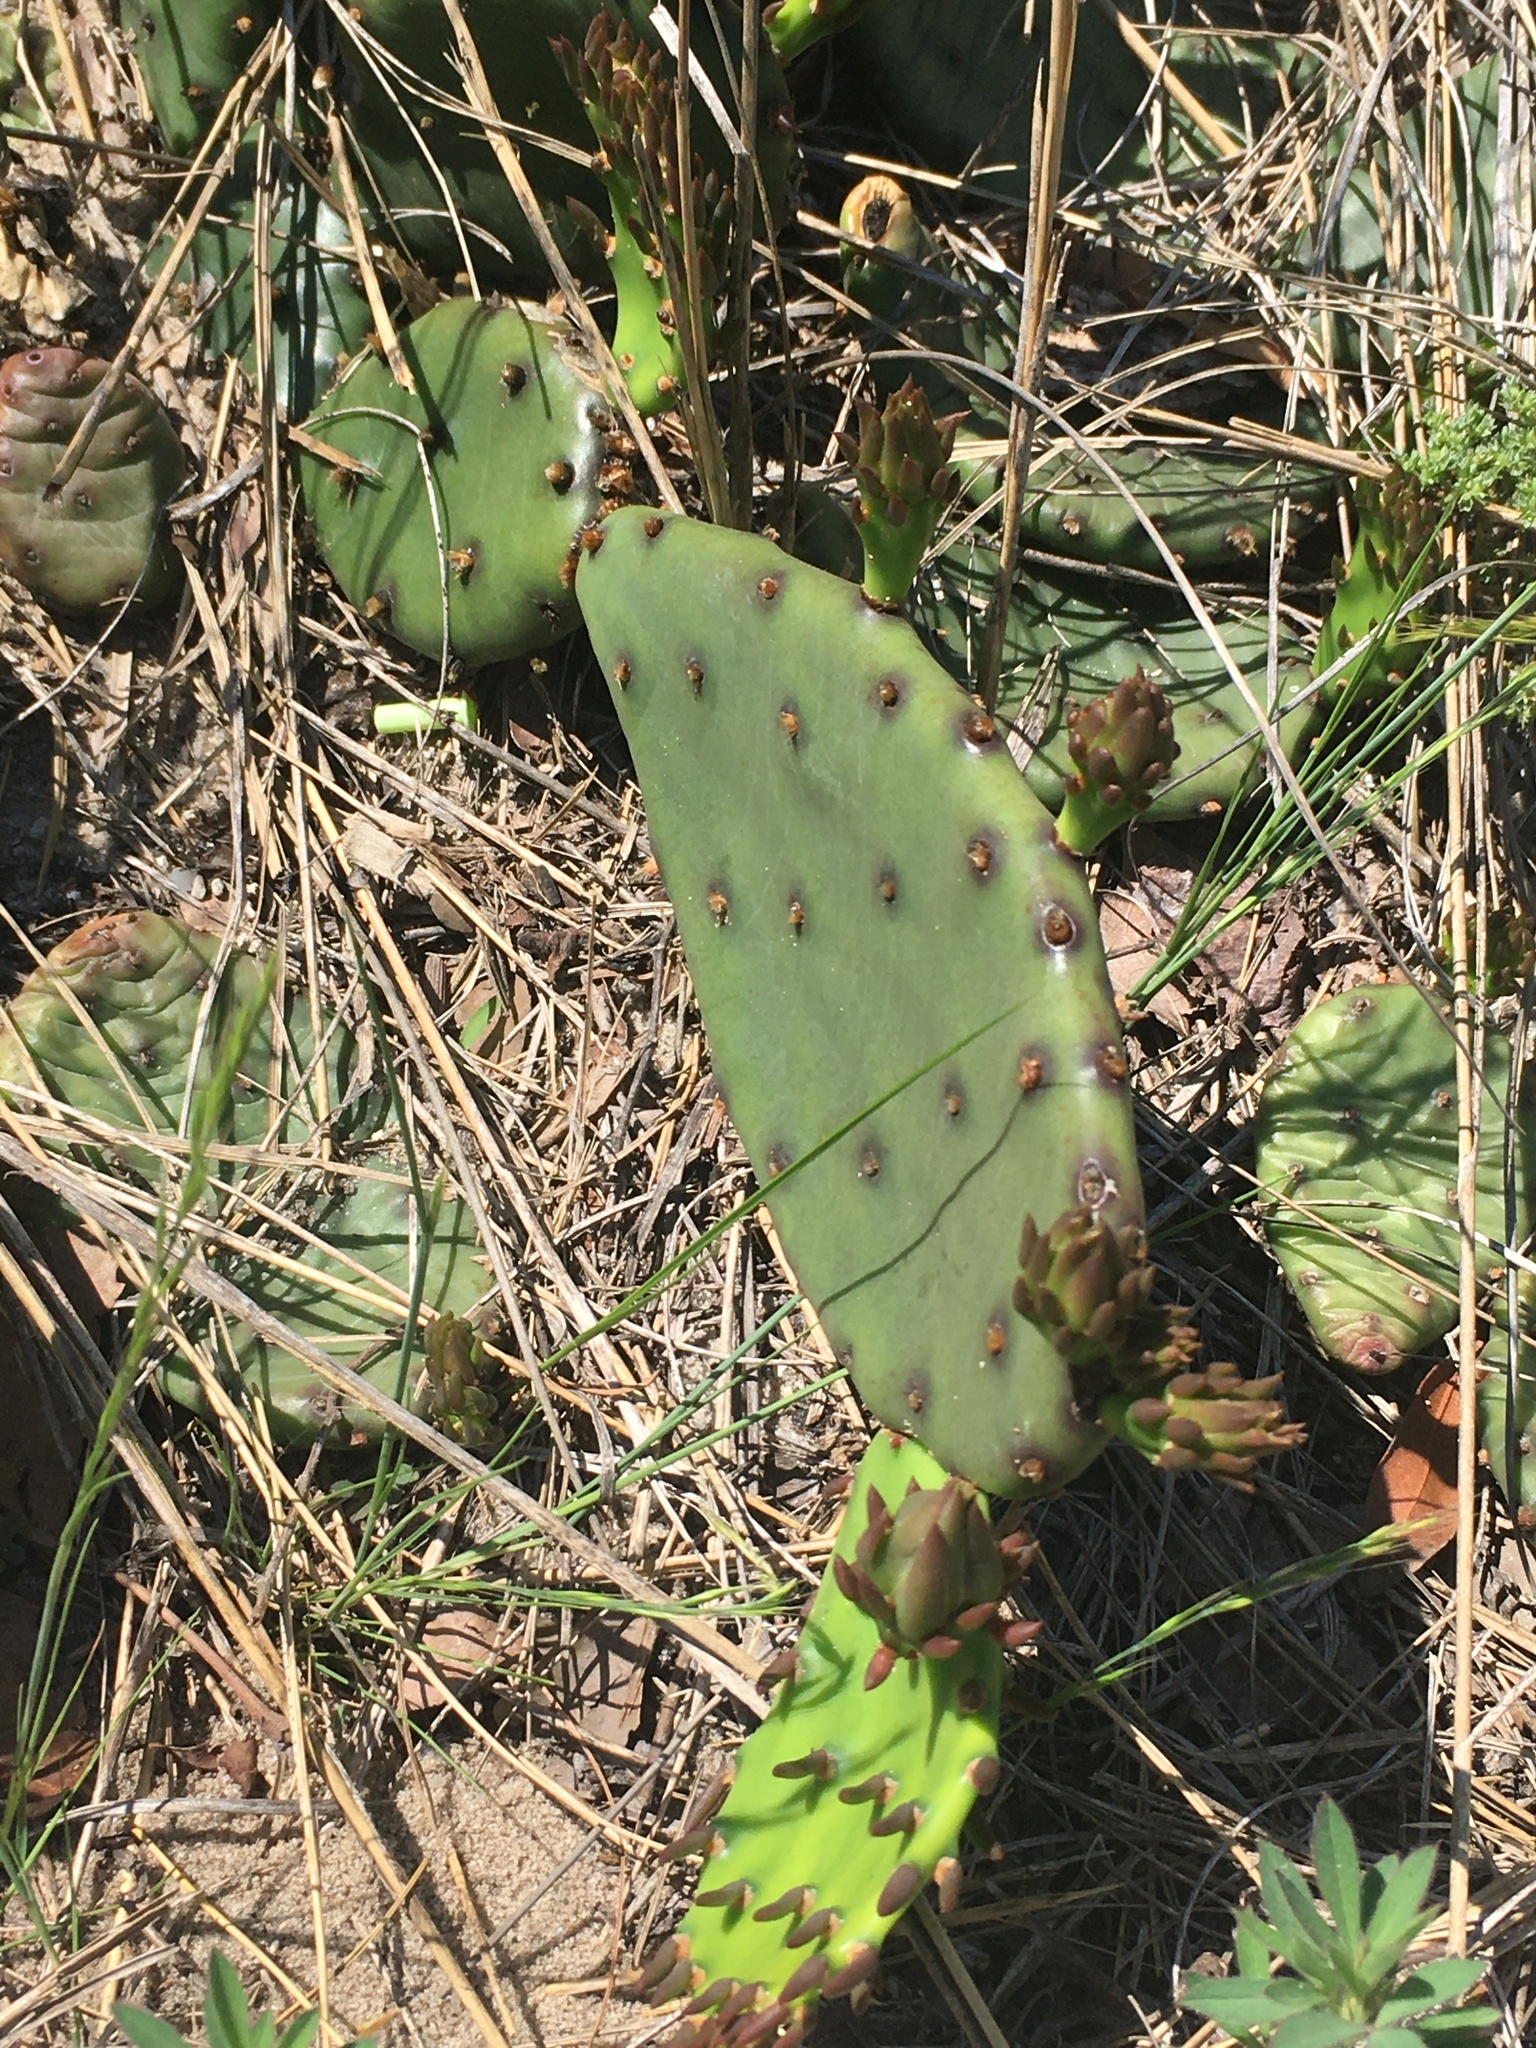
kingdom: Plantae
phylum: Tracheophyta
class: Magnoliopsida
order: Caryophyllales
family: Cactaceae
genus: Opuntia
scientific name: Opuntia humifusa
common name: Eastern prickly-pear
